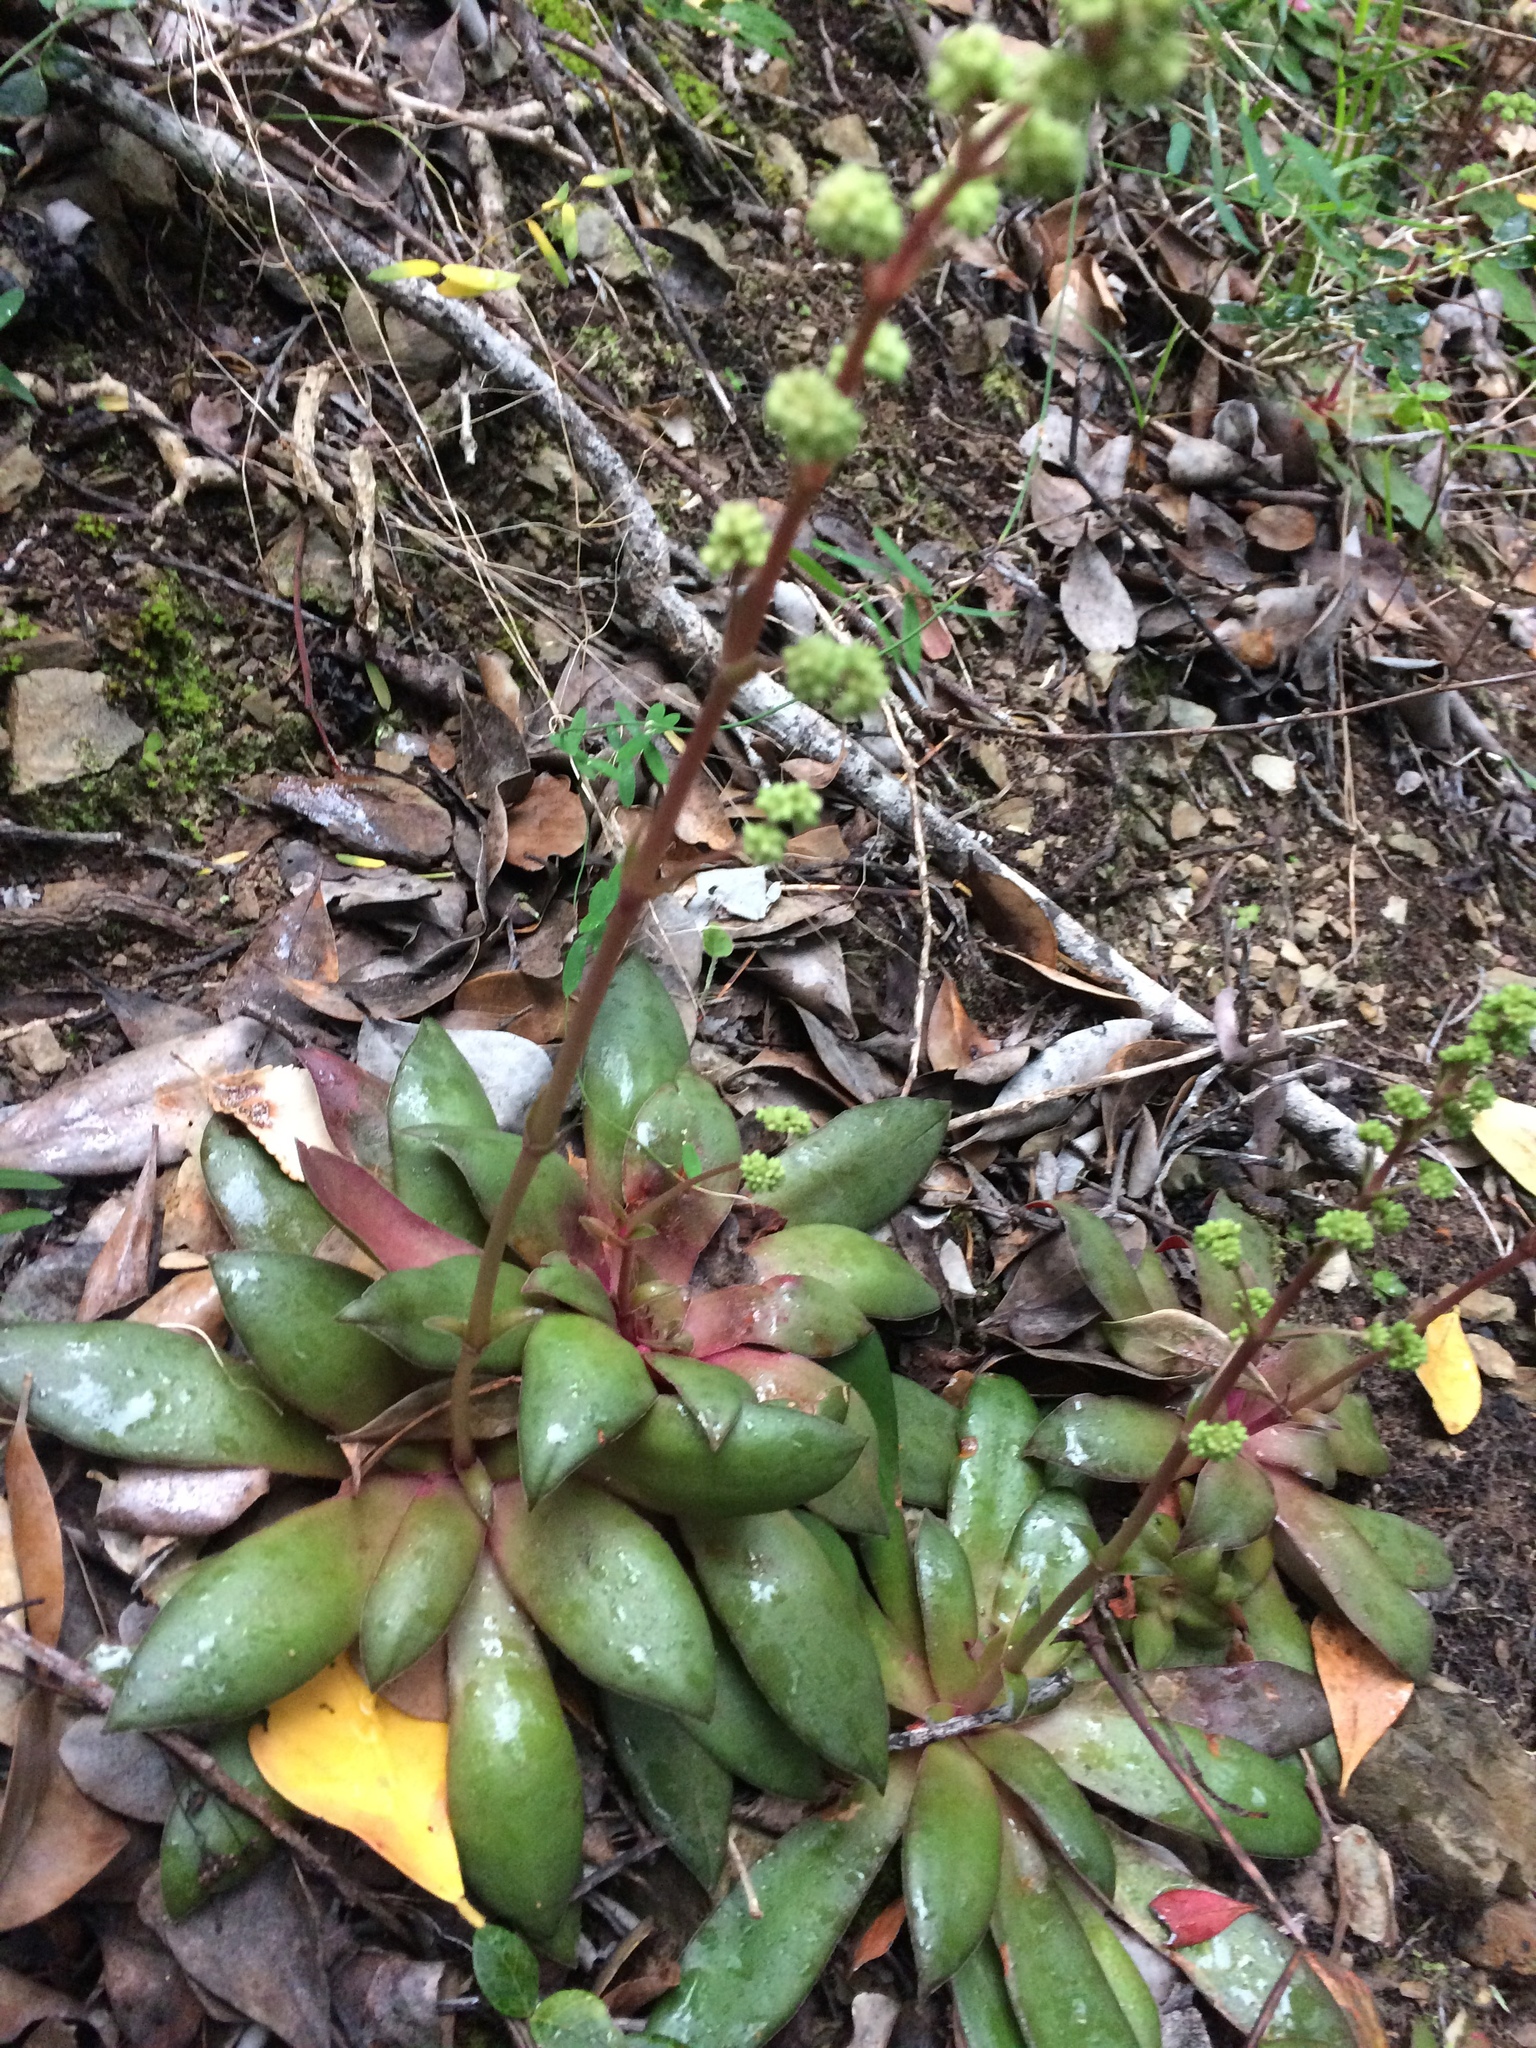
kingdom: Plantae
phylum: Tracheophyta
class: Magnoliopsida
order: Saxifragales
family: Crassulaceae
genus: Crassula
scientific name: Crassula orbicularis
